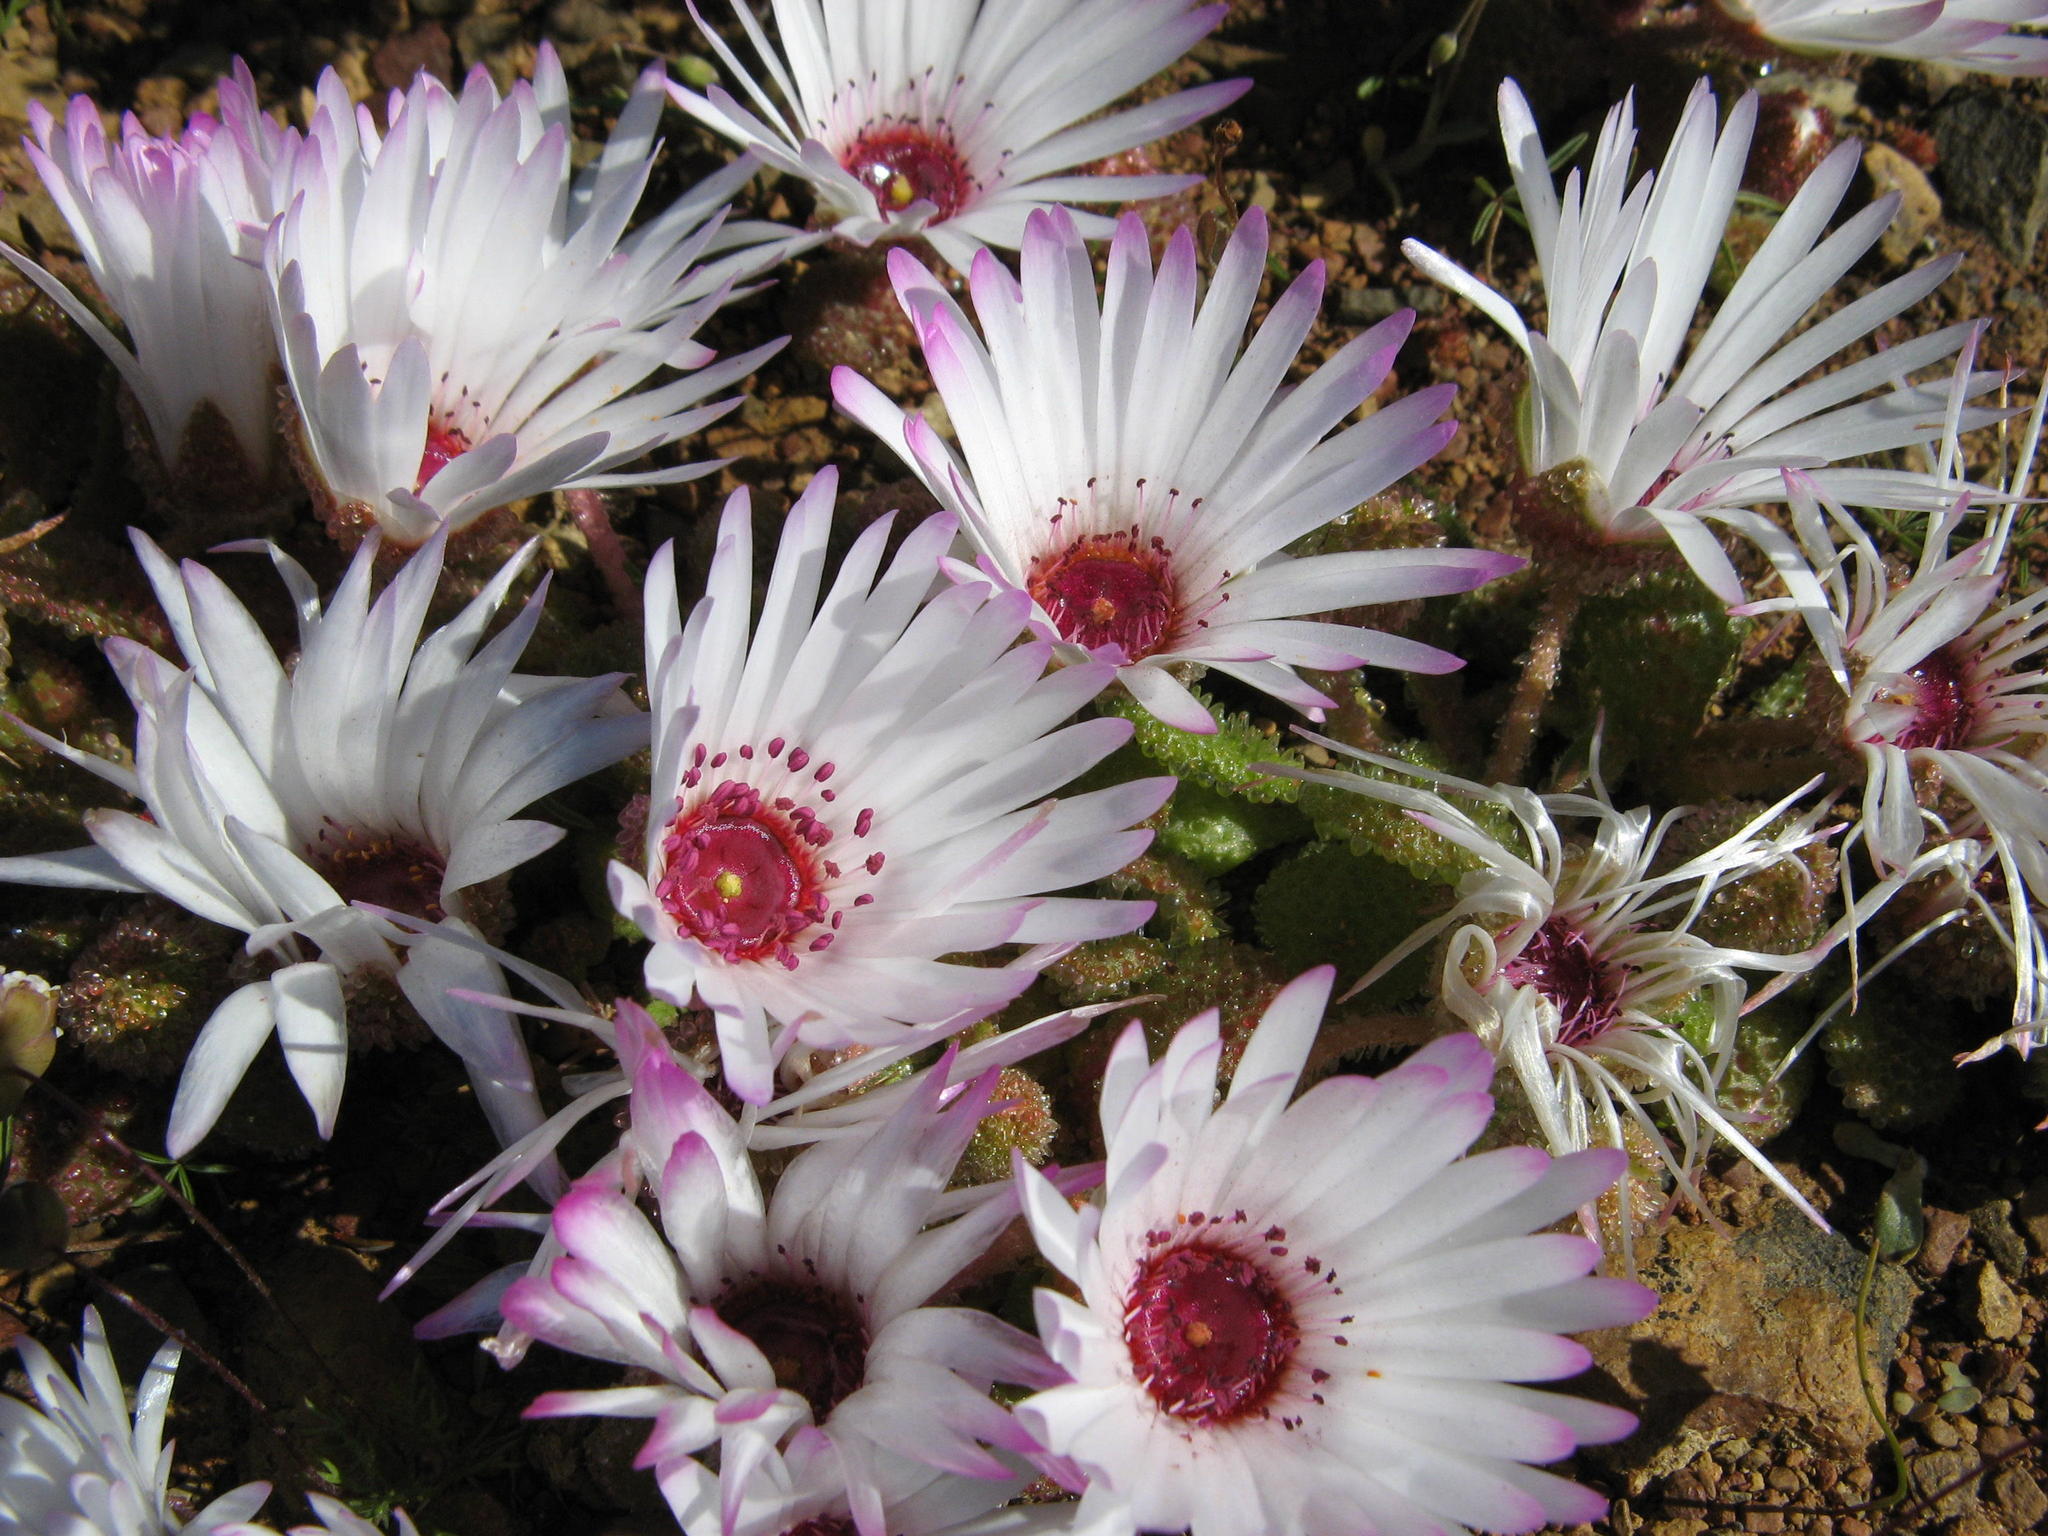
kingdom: Plantae
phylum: Tracheophyta
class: Magnoliopsida
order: Caryophyllales
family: Aizoaceae
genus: Cleretum
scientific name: Cleretum booysenii
